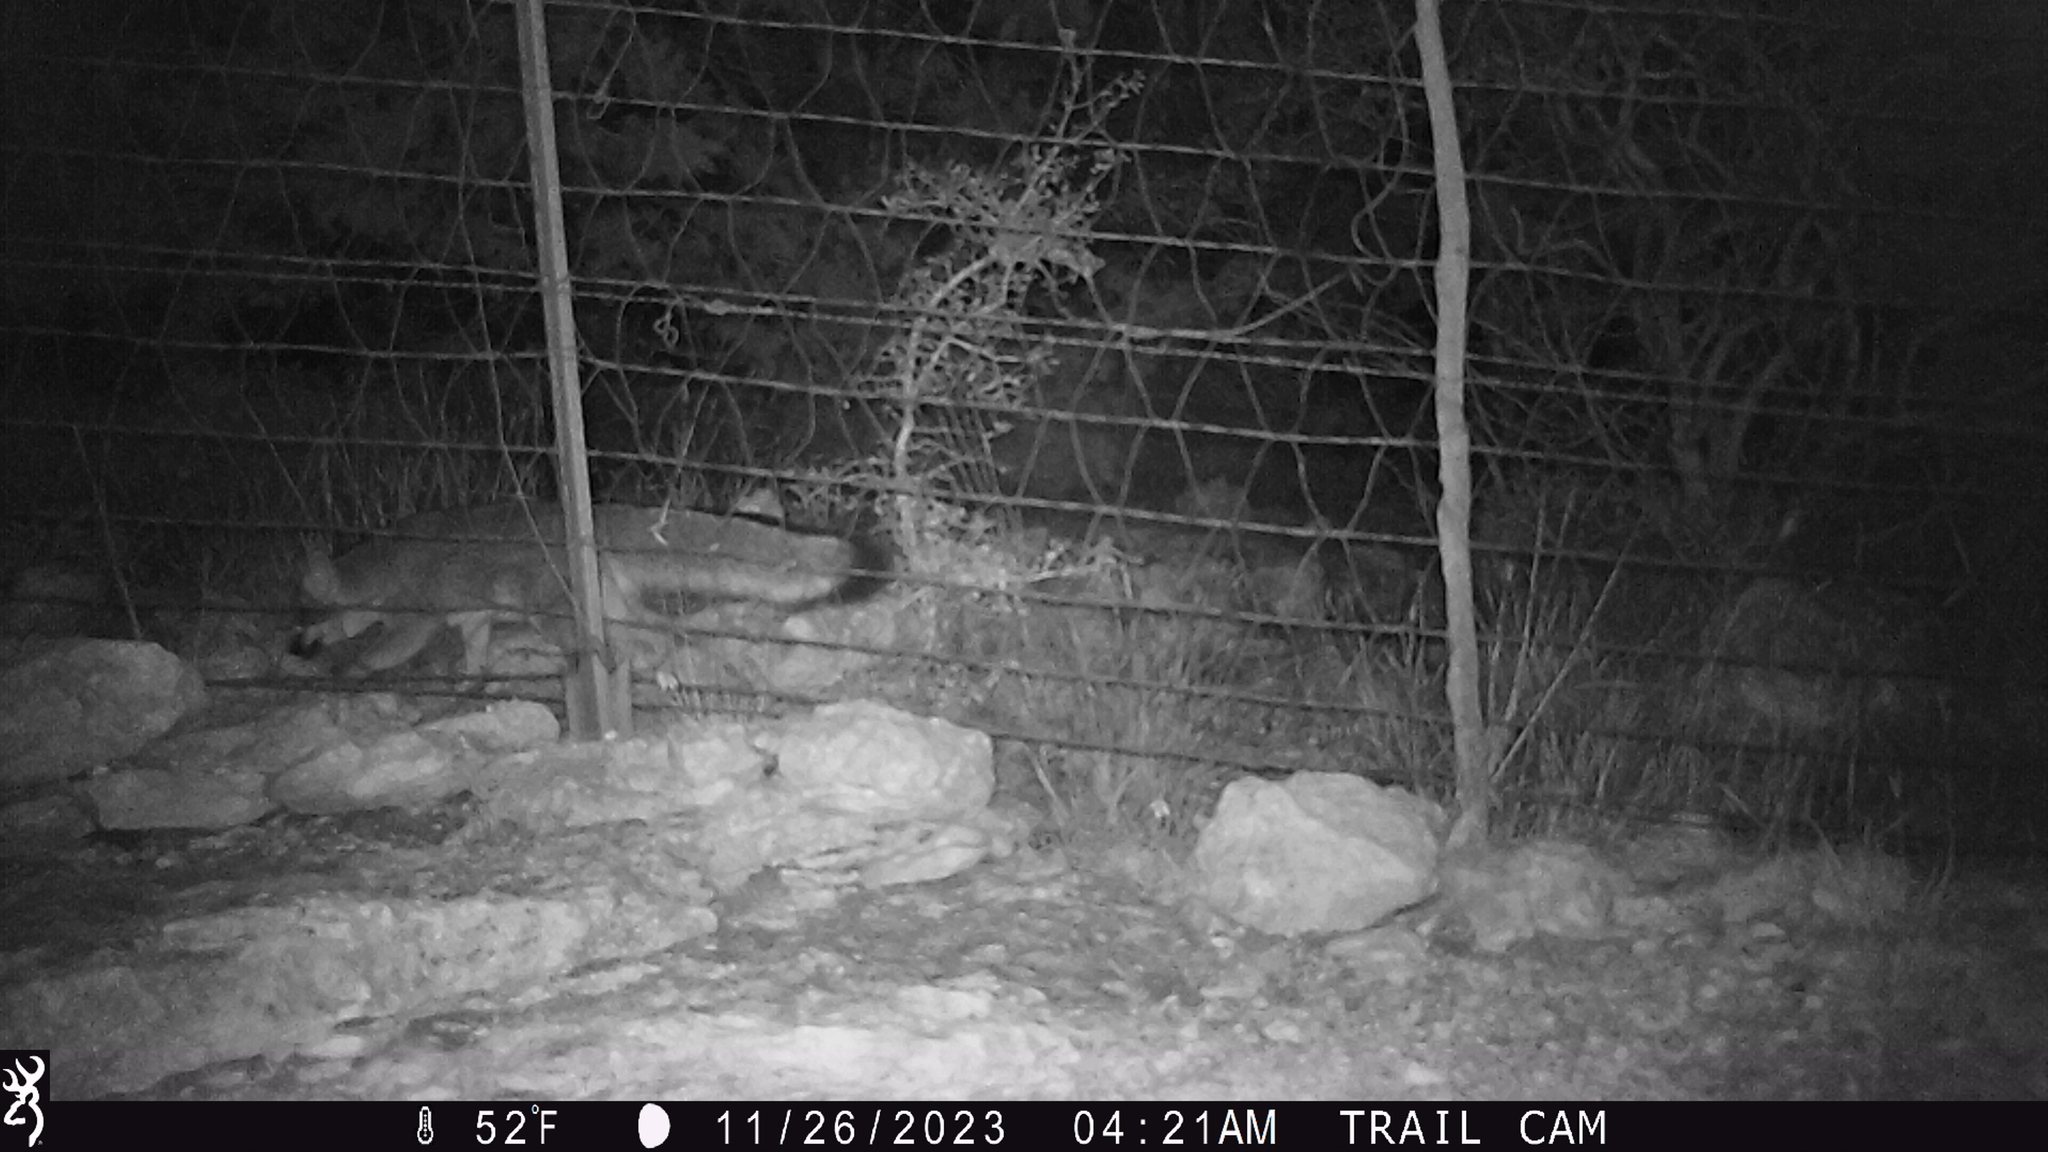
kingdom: Animalia
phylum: Chordata
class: Mammalia
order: Carnivora
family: Canidae
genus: Urocyon
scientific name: Urocyon cinereoargenteus
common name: Gray fox
